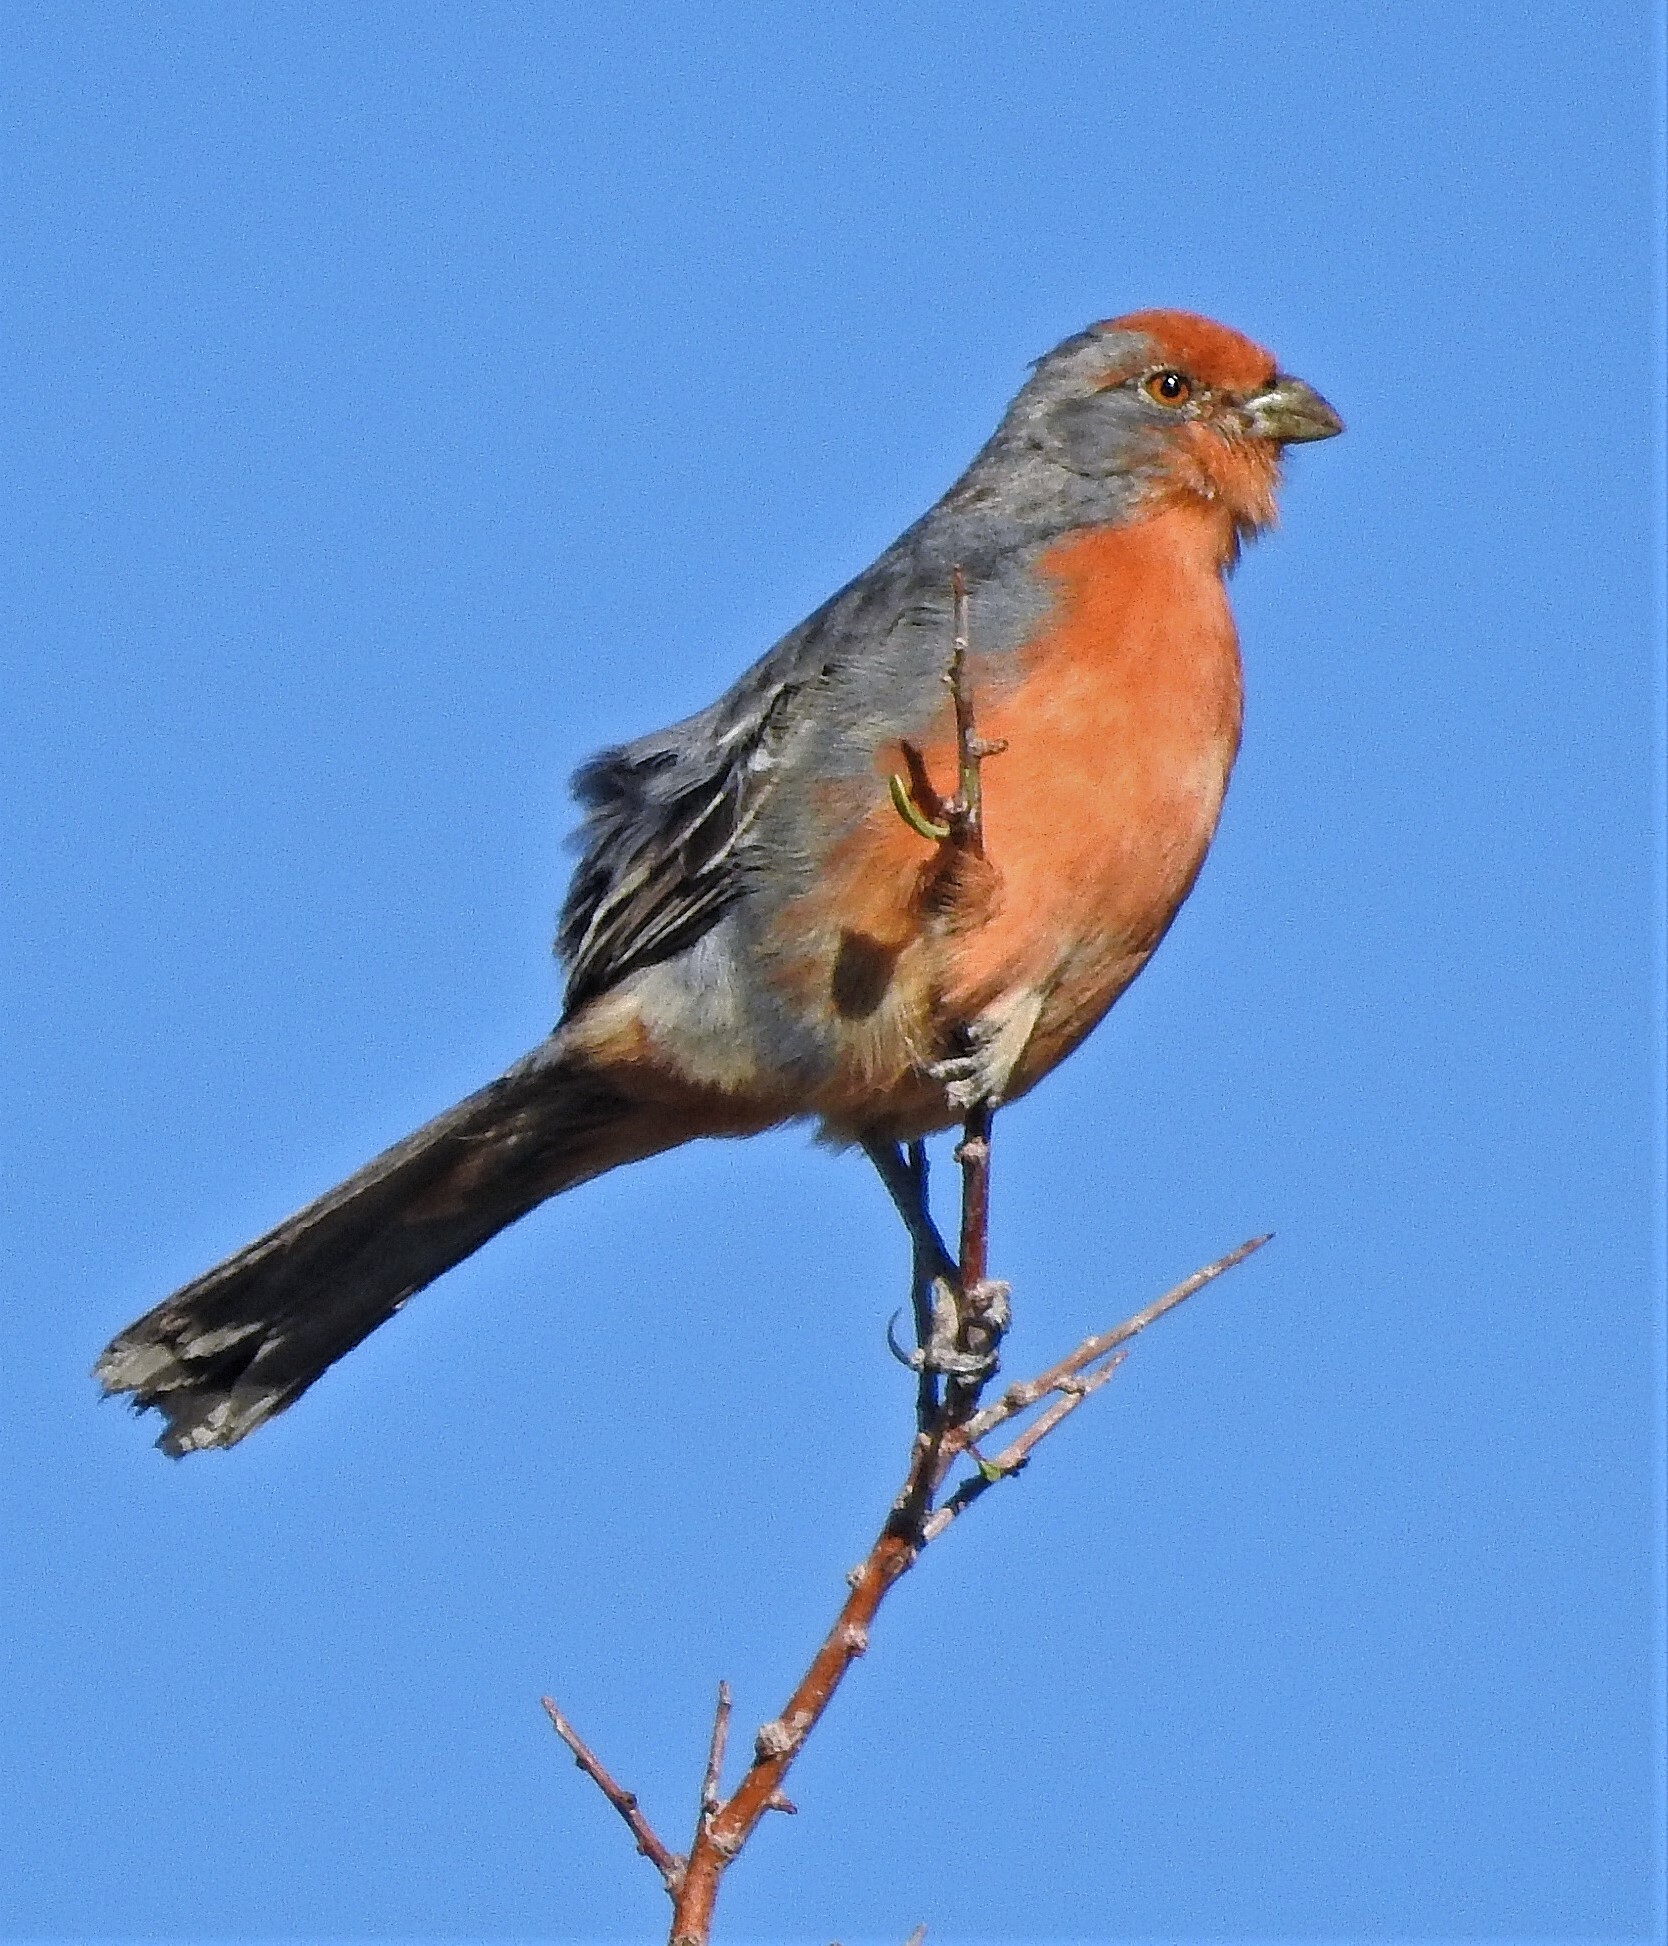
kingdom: Animalia
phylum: Chordata
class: Aves
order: Passeriformes
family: Cotingidae
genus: Phytotoma
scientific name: Phytotoma rutila
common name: White-tipped plantcutter
